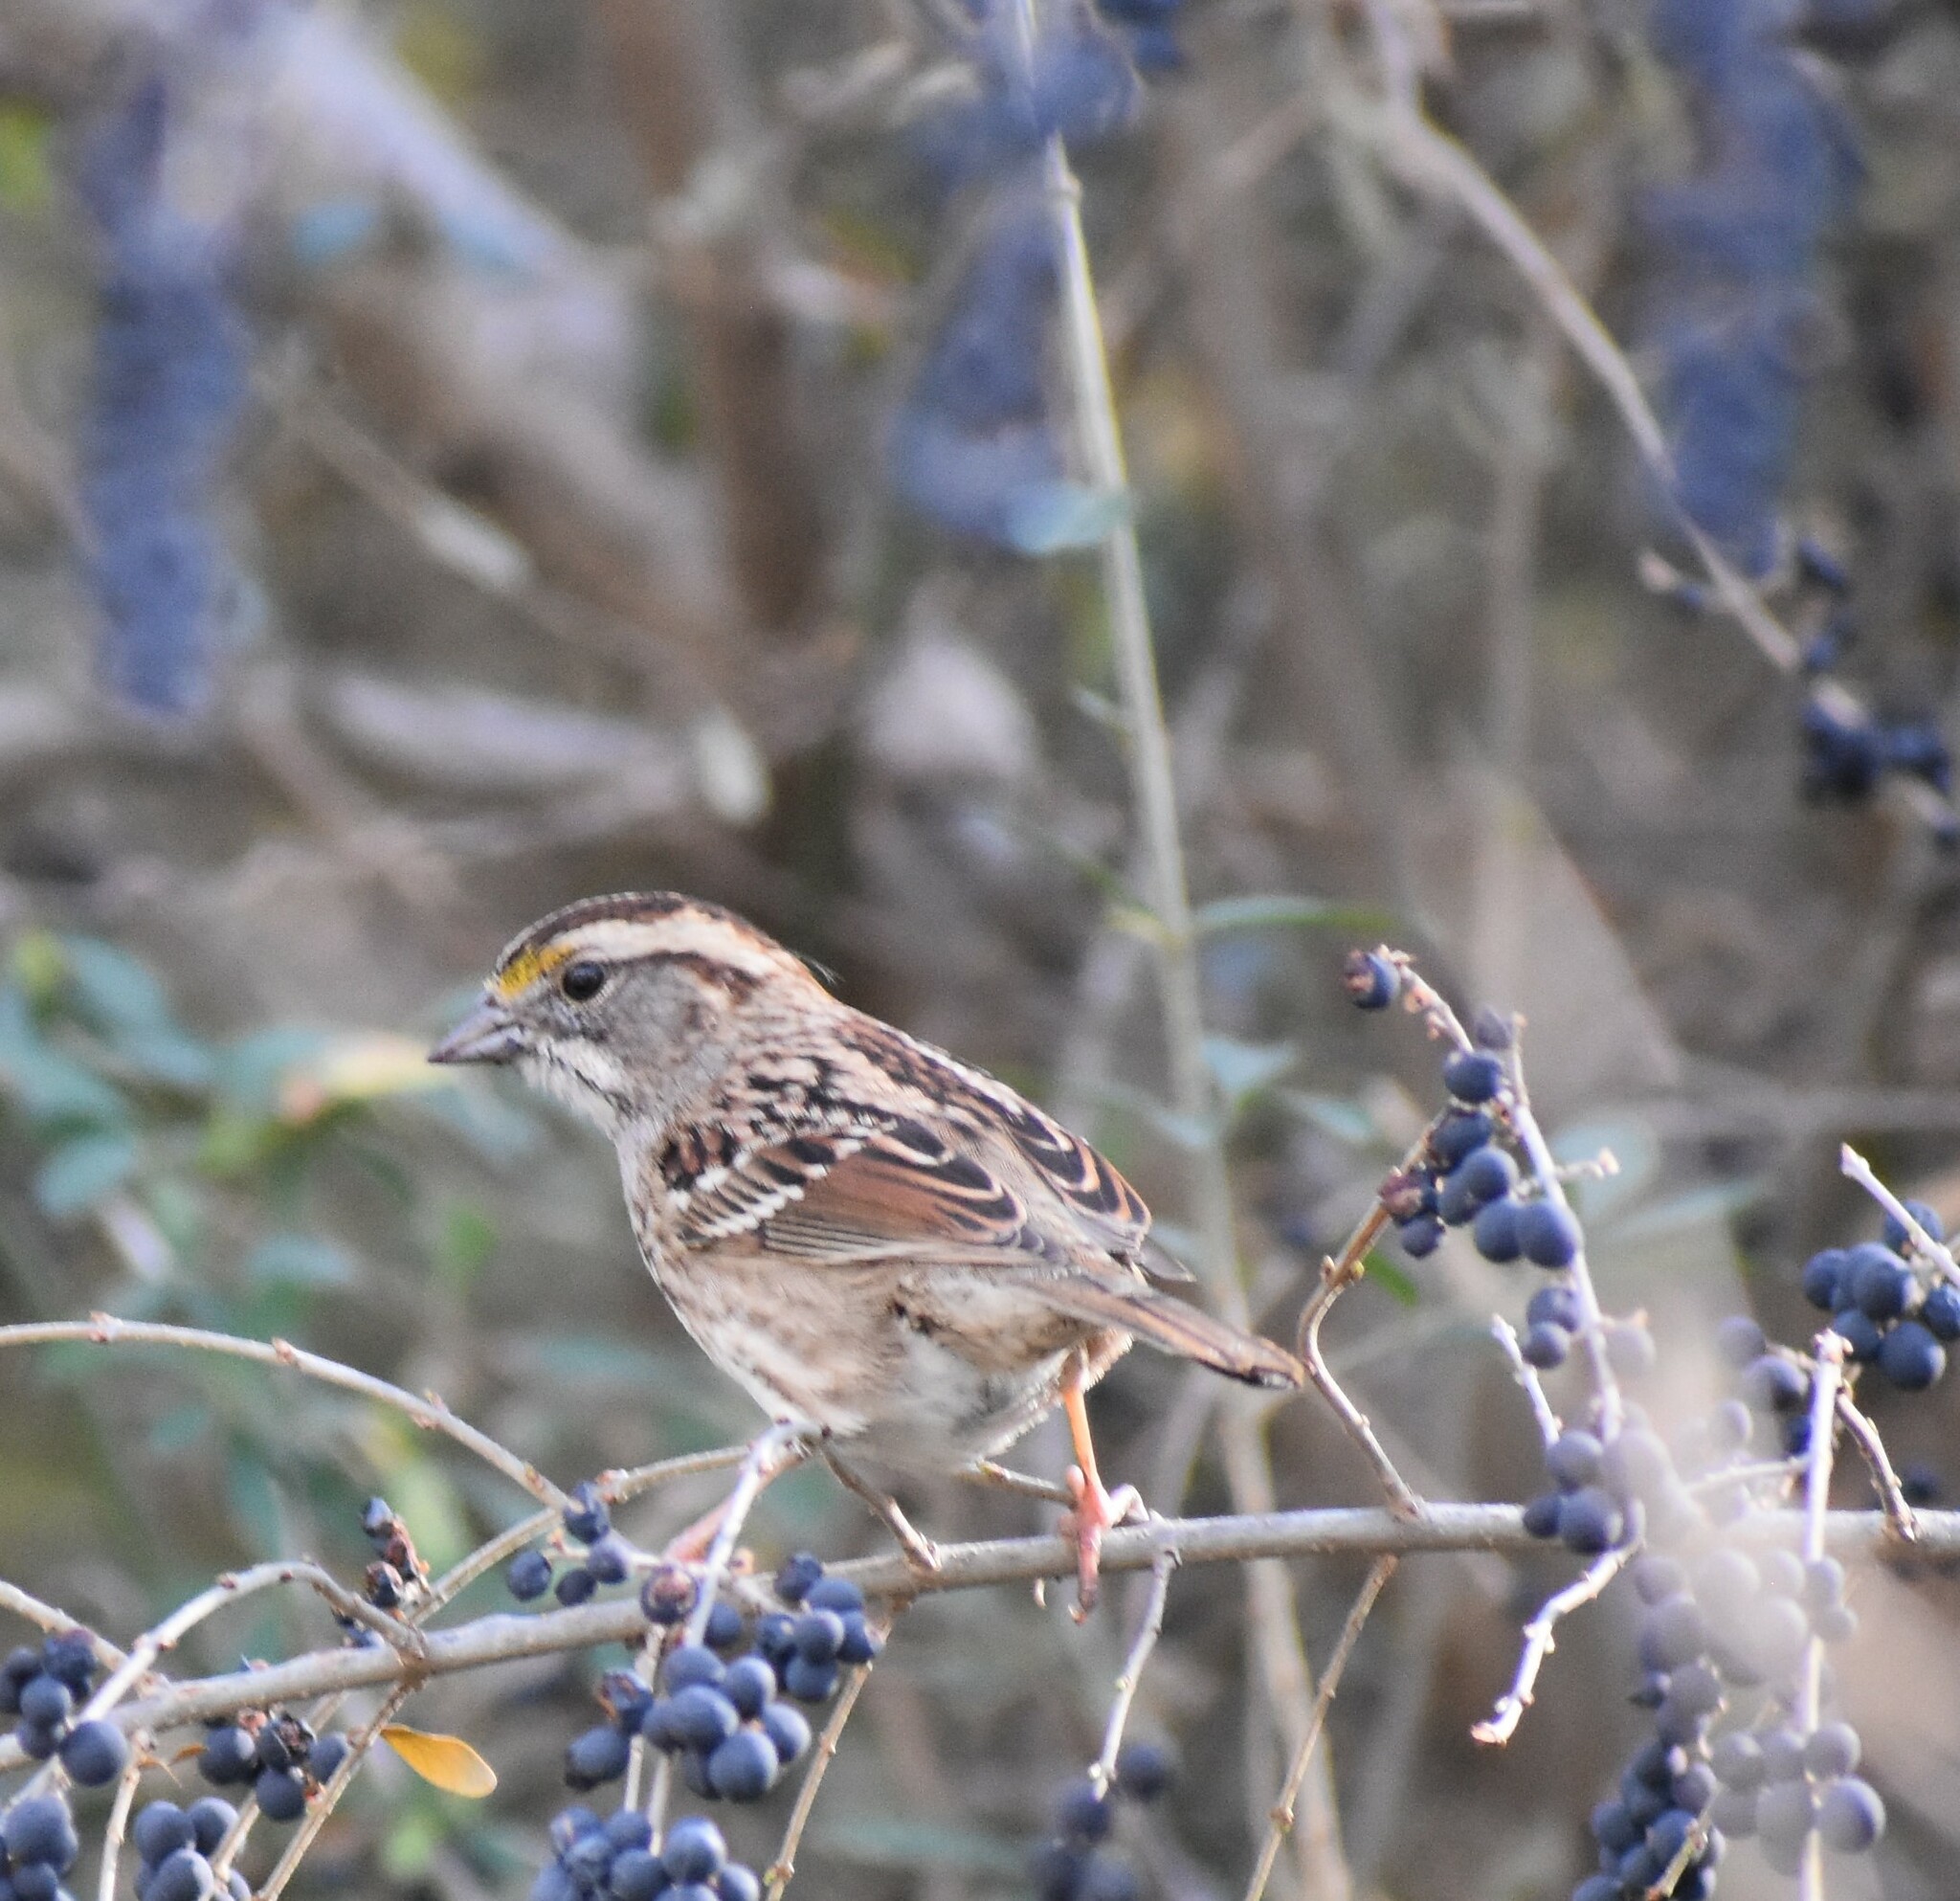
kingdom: Animalia
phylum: Chordata
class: Aves
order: Passeriformes
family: Passerellidae
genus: Zonotrichia
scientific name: Zonotrichia albicollis
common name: White-throated sparrow
